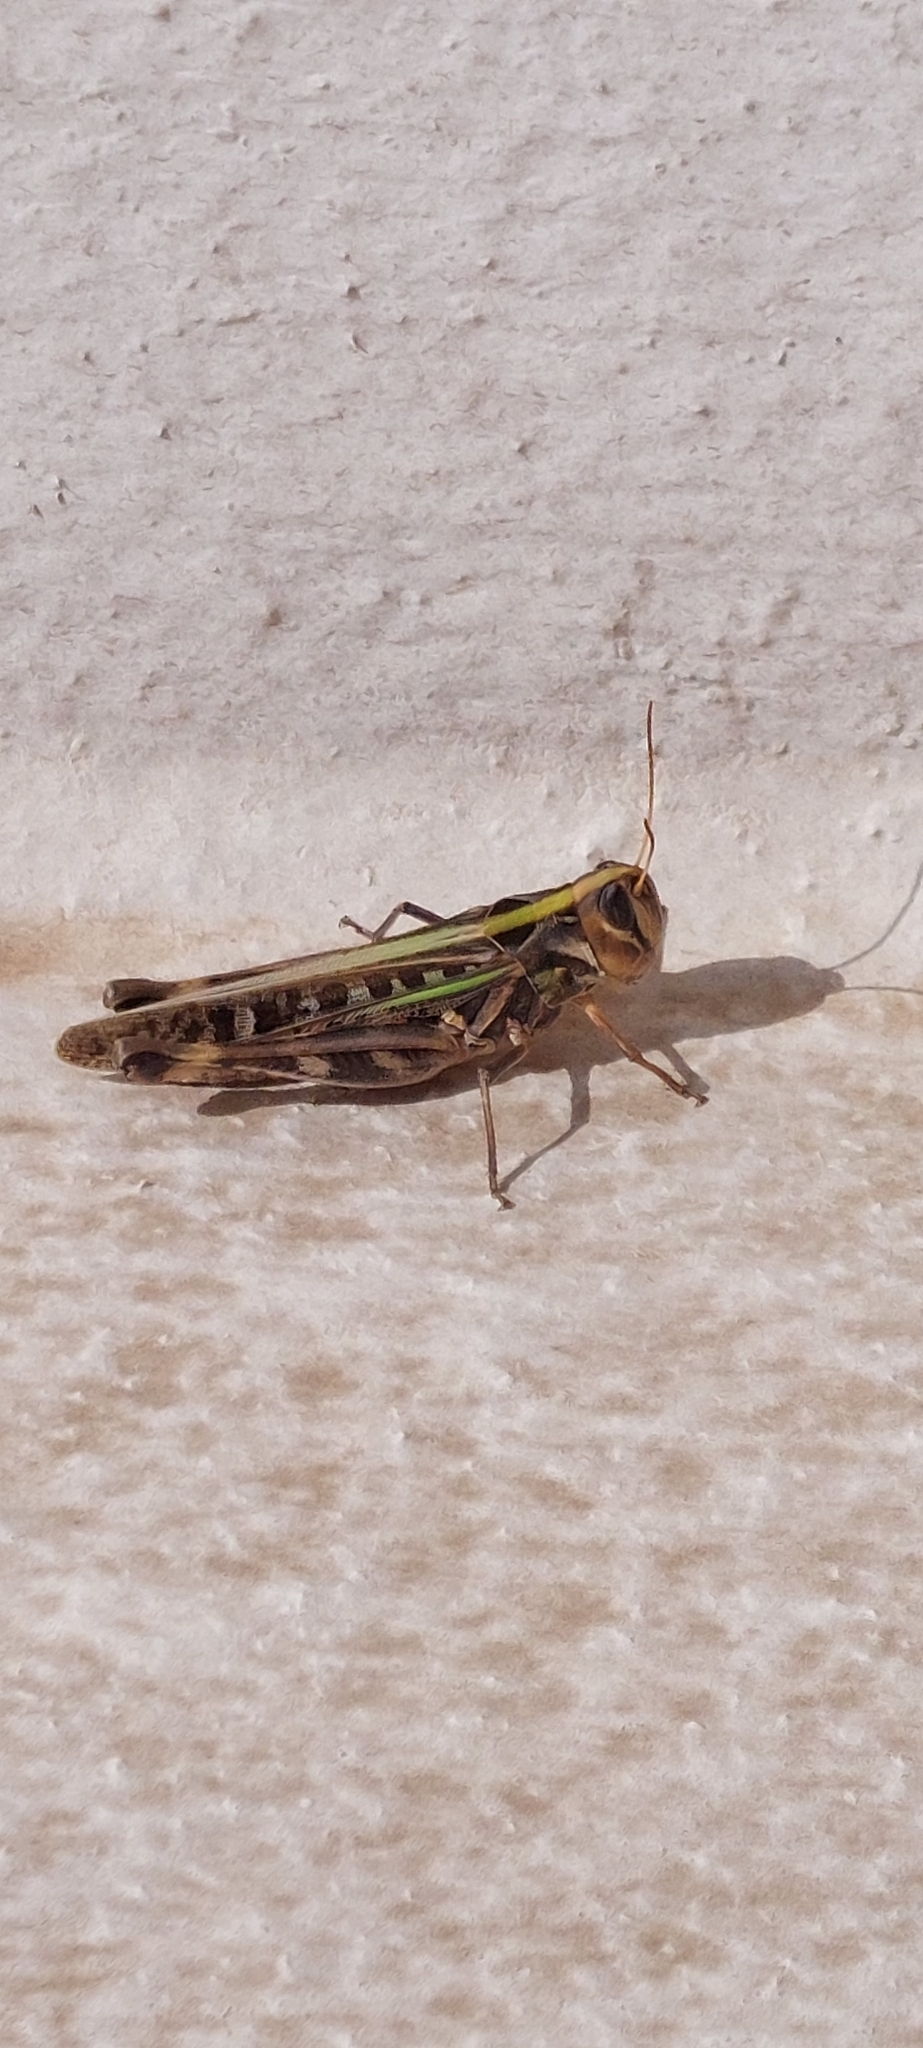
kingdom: Animalia
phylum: Arthropoda
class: Insecta
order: Orthoptera
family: Acrididae
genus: Rhammatocerus
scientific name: Rhammatocerus pictus
